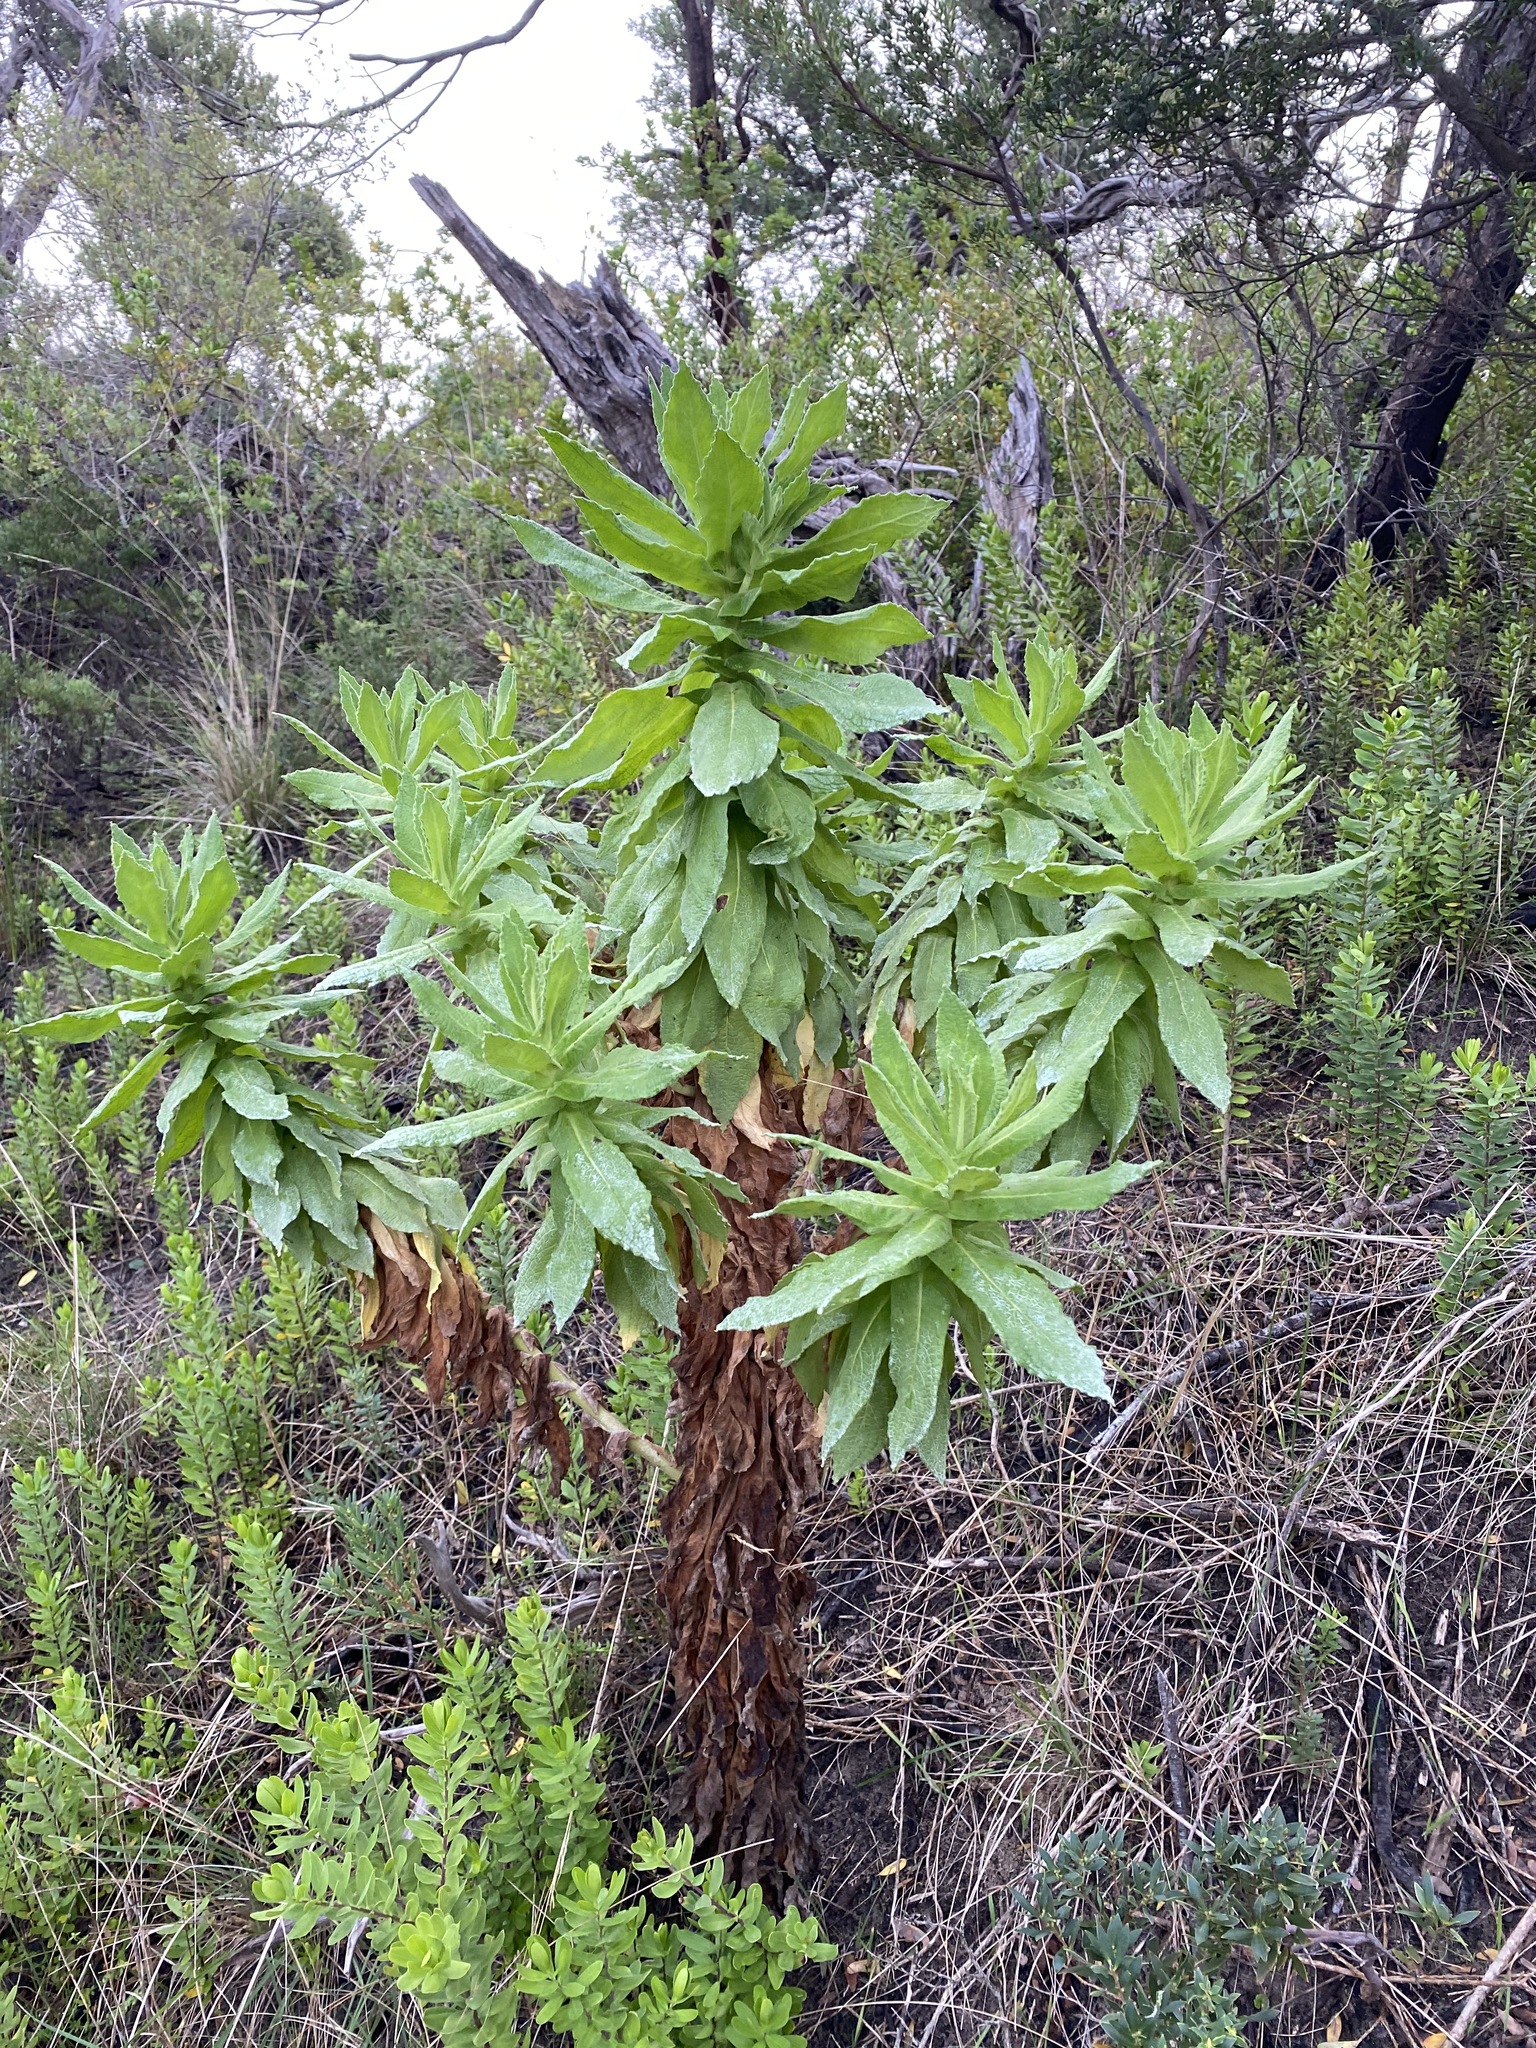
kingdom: Plantae
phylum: Tracheophyta
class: Magnoliopsida
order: Asterales
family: Asteraceae
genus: Apalochlamys
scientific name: Apalochlamys spectabilis
